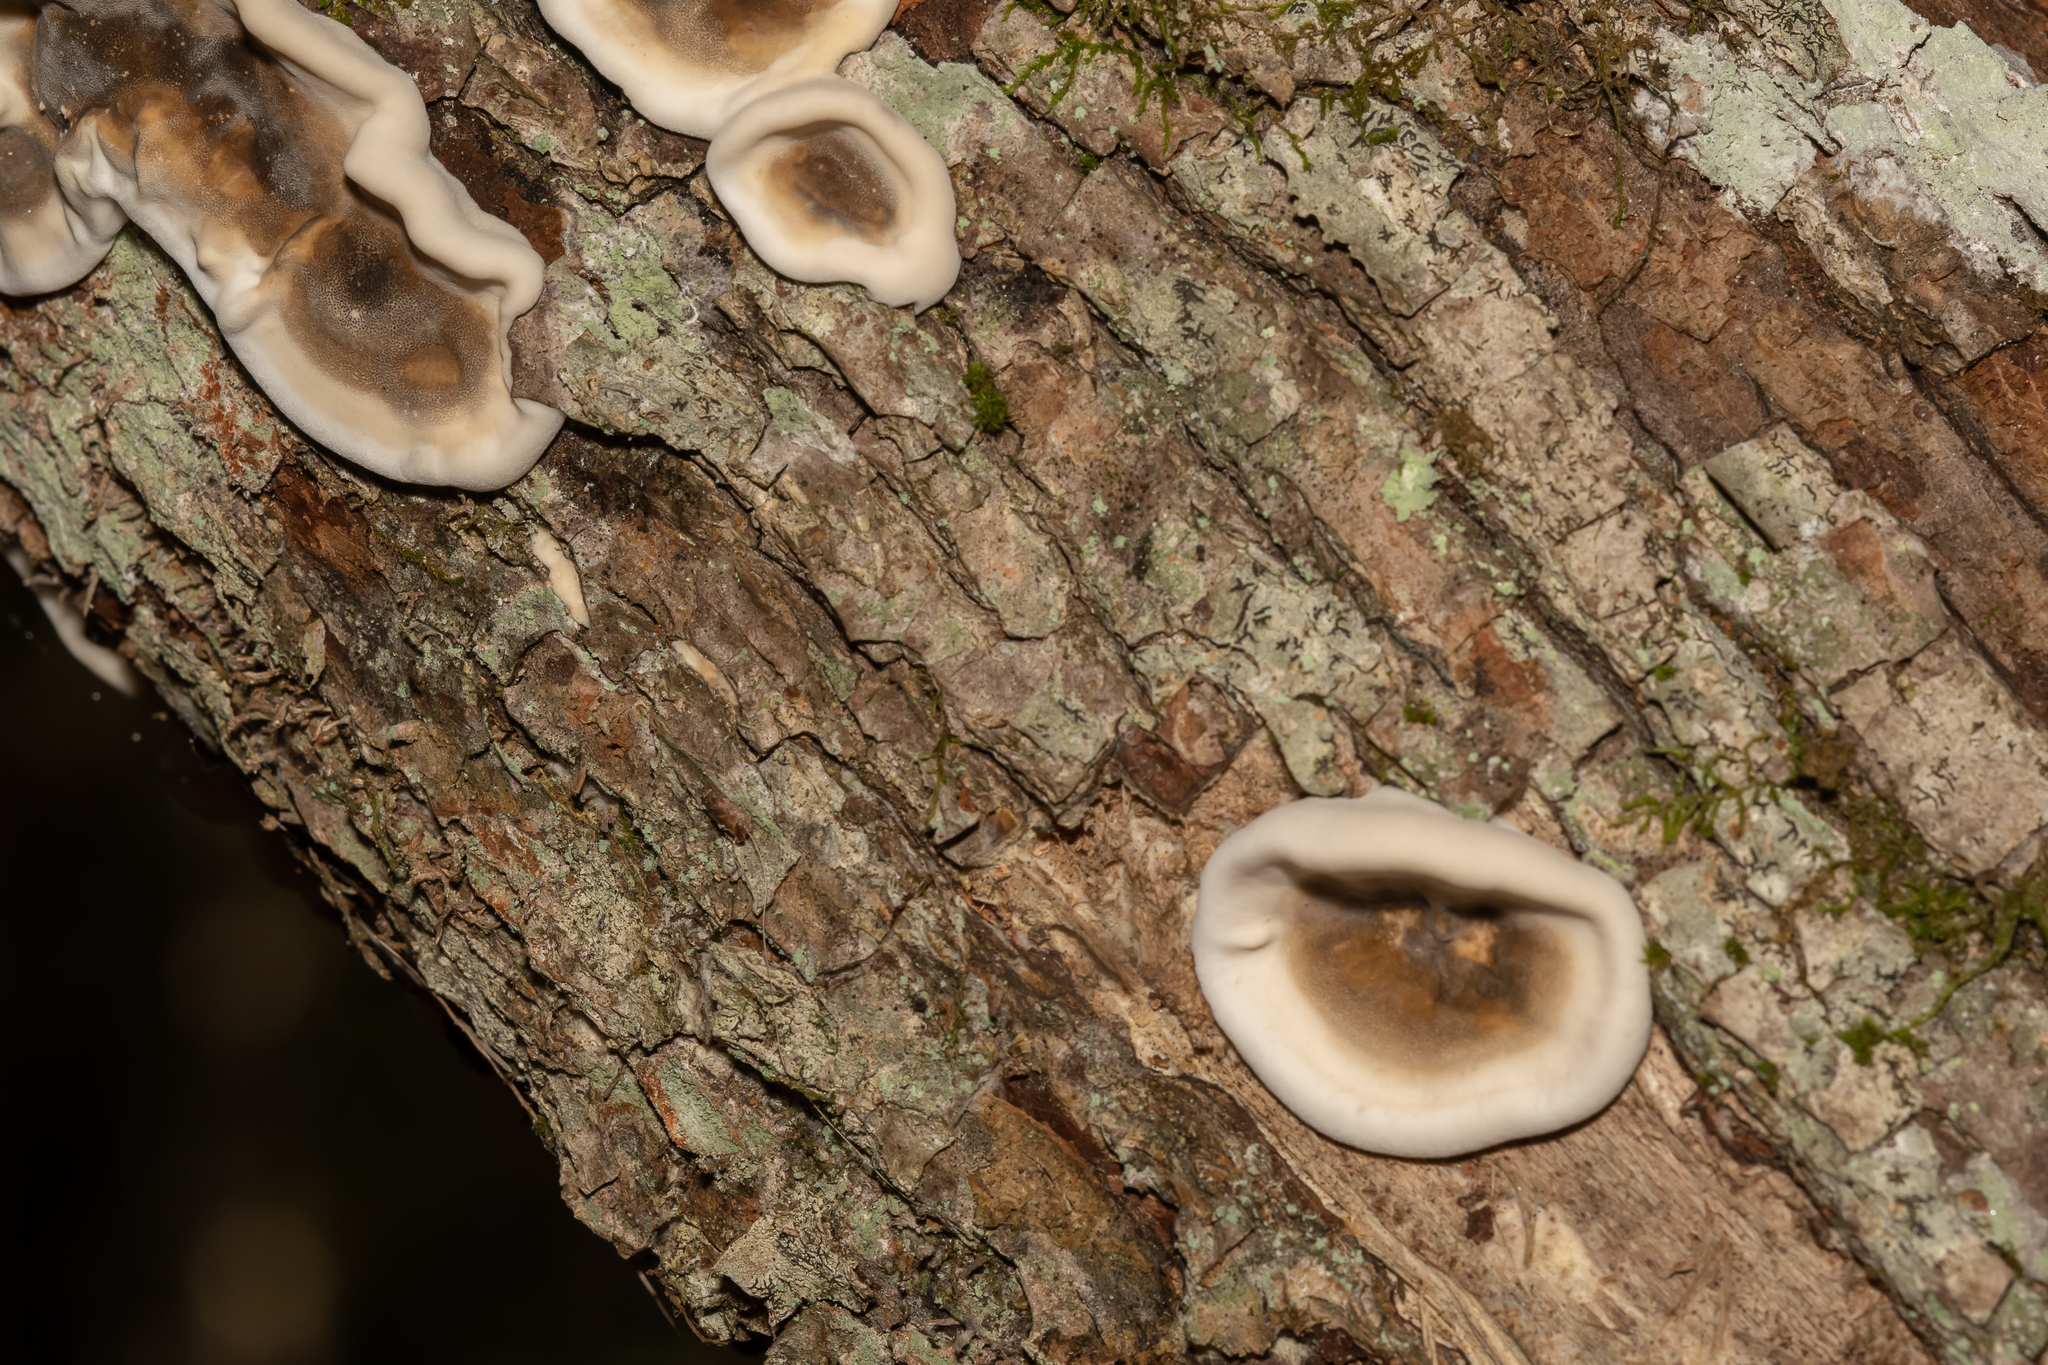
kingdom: Fungi
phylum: Basidiomycota
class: Agaricomycetes
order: Polyporales
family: Phanerochaetaceae
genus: Bjerkandera
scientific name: Bjerkandera adusta
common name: Smoky bracket
